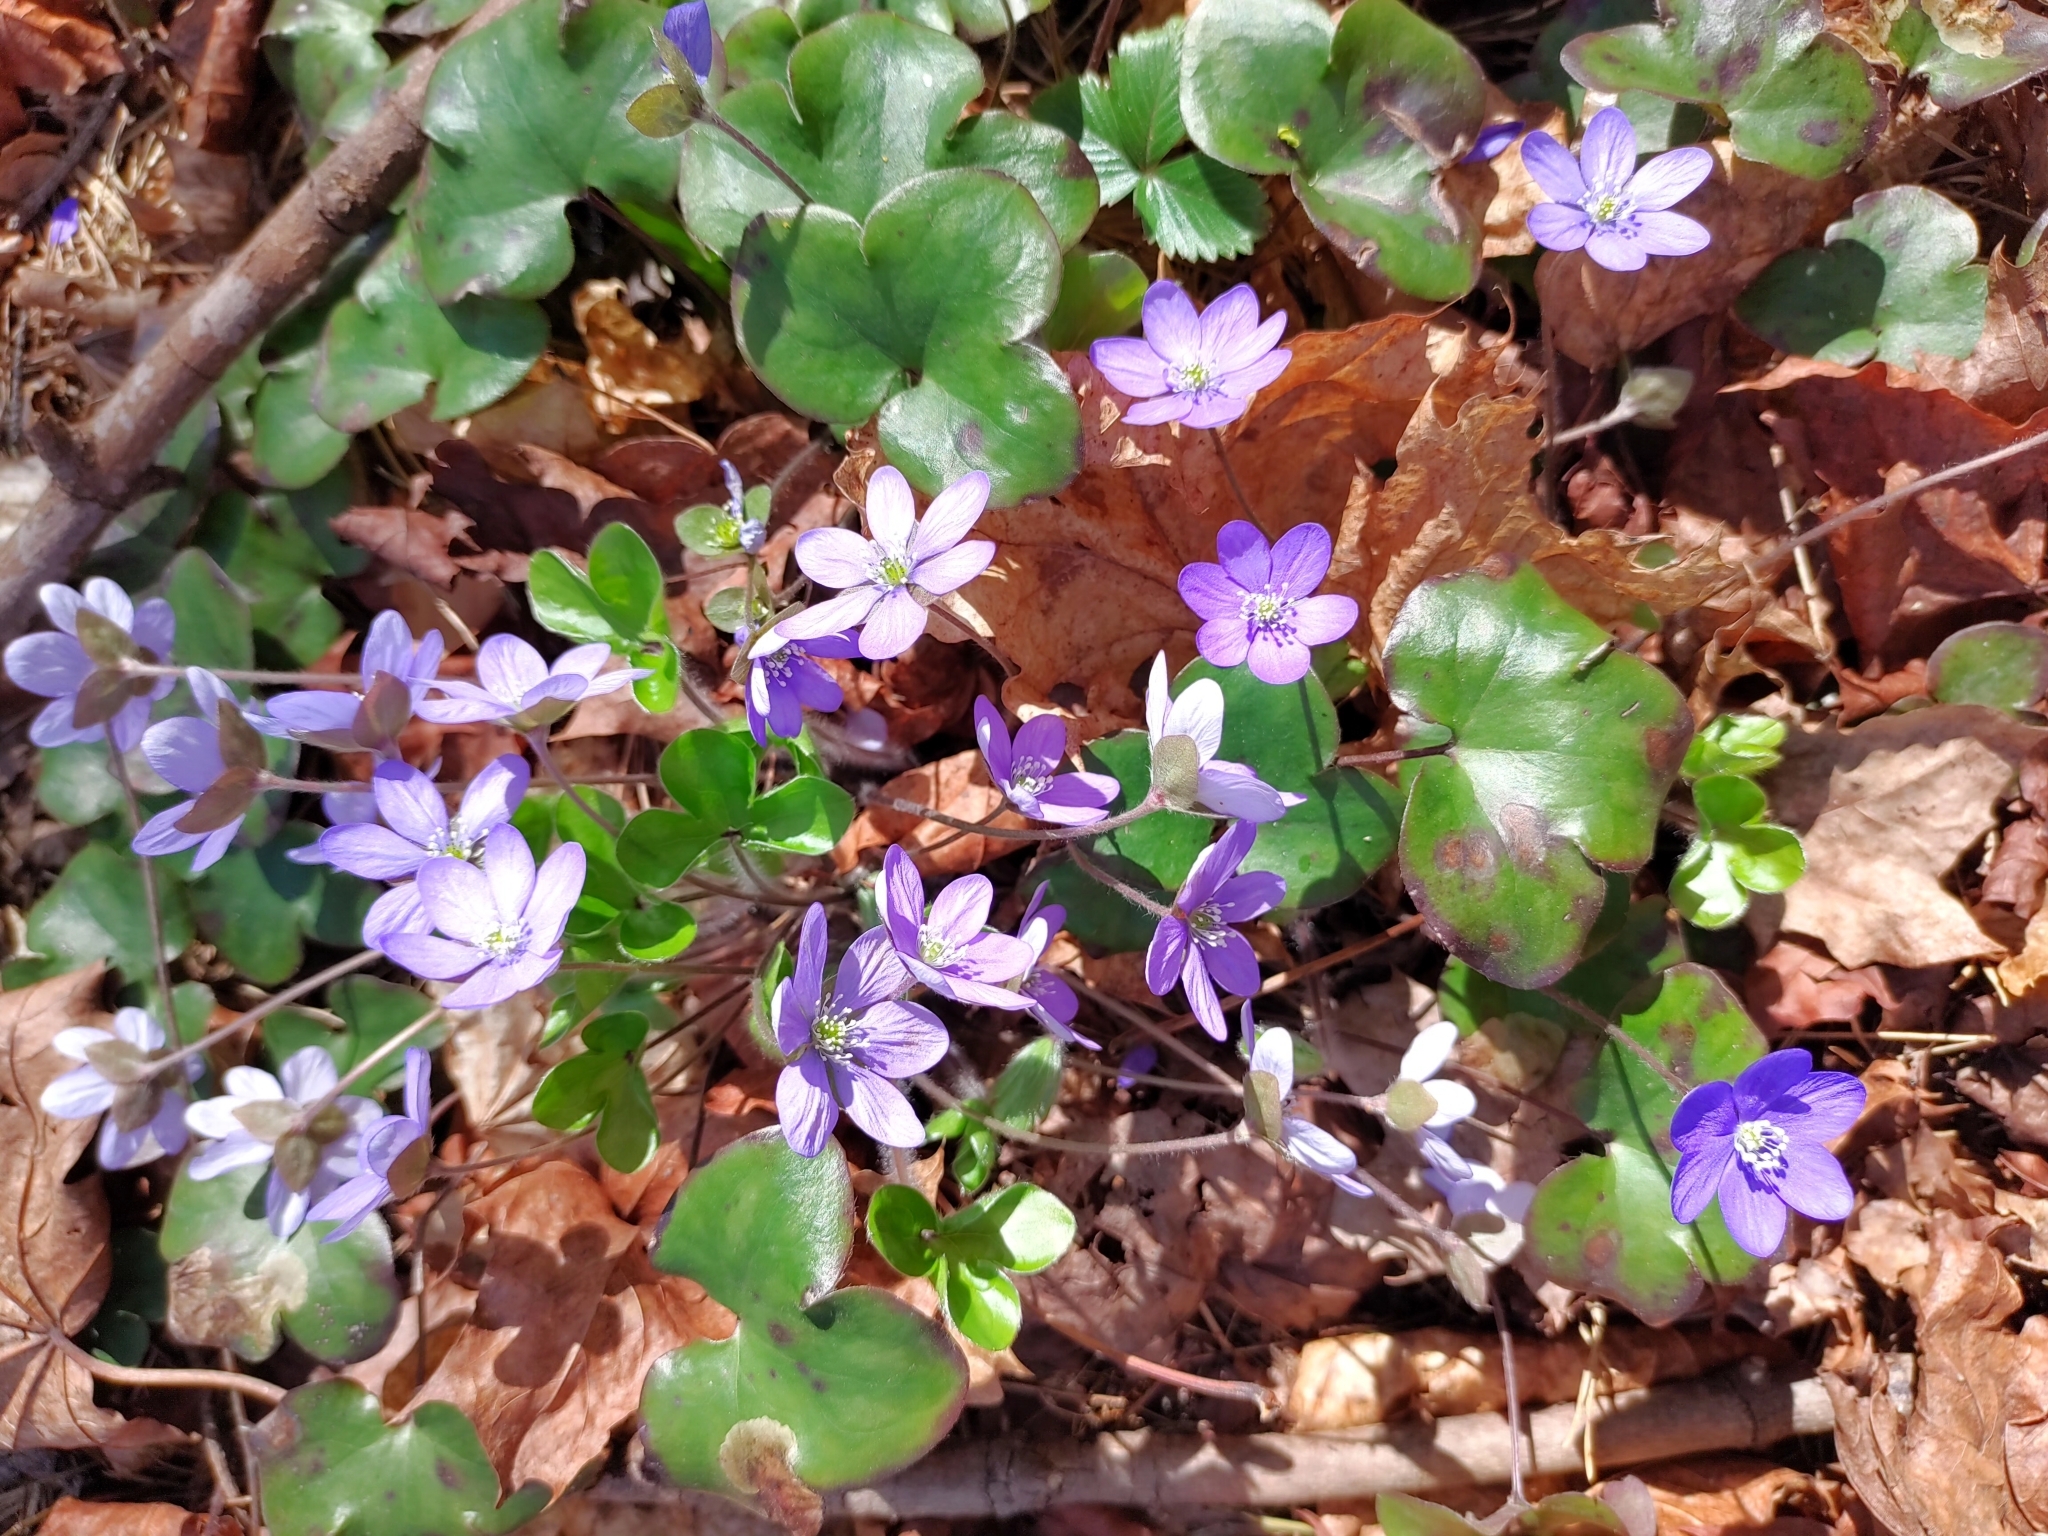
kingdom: Plantae
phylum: Tracheophyta
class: Magnoliopsida
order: Ranunculales
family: Ranunculaceae
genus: Hepatica
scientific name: Hepatica nobilis
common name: Liverleaf
